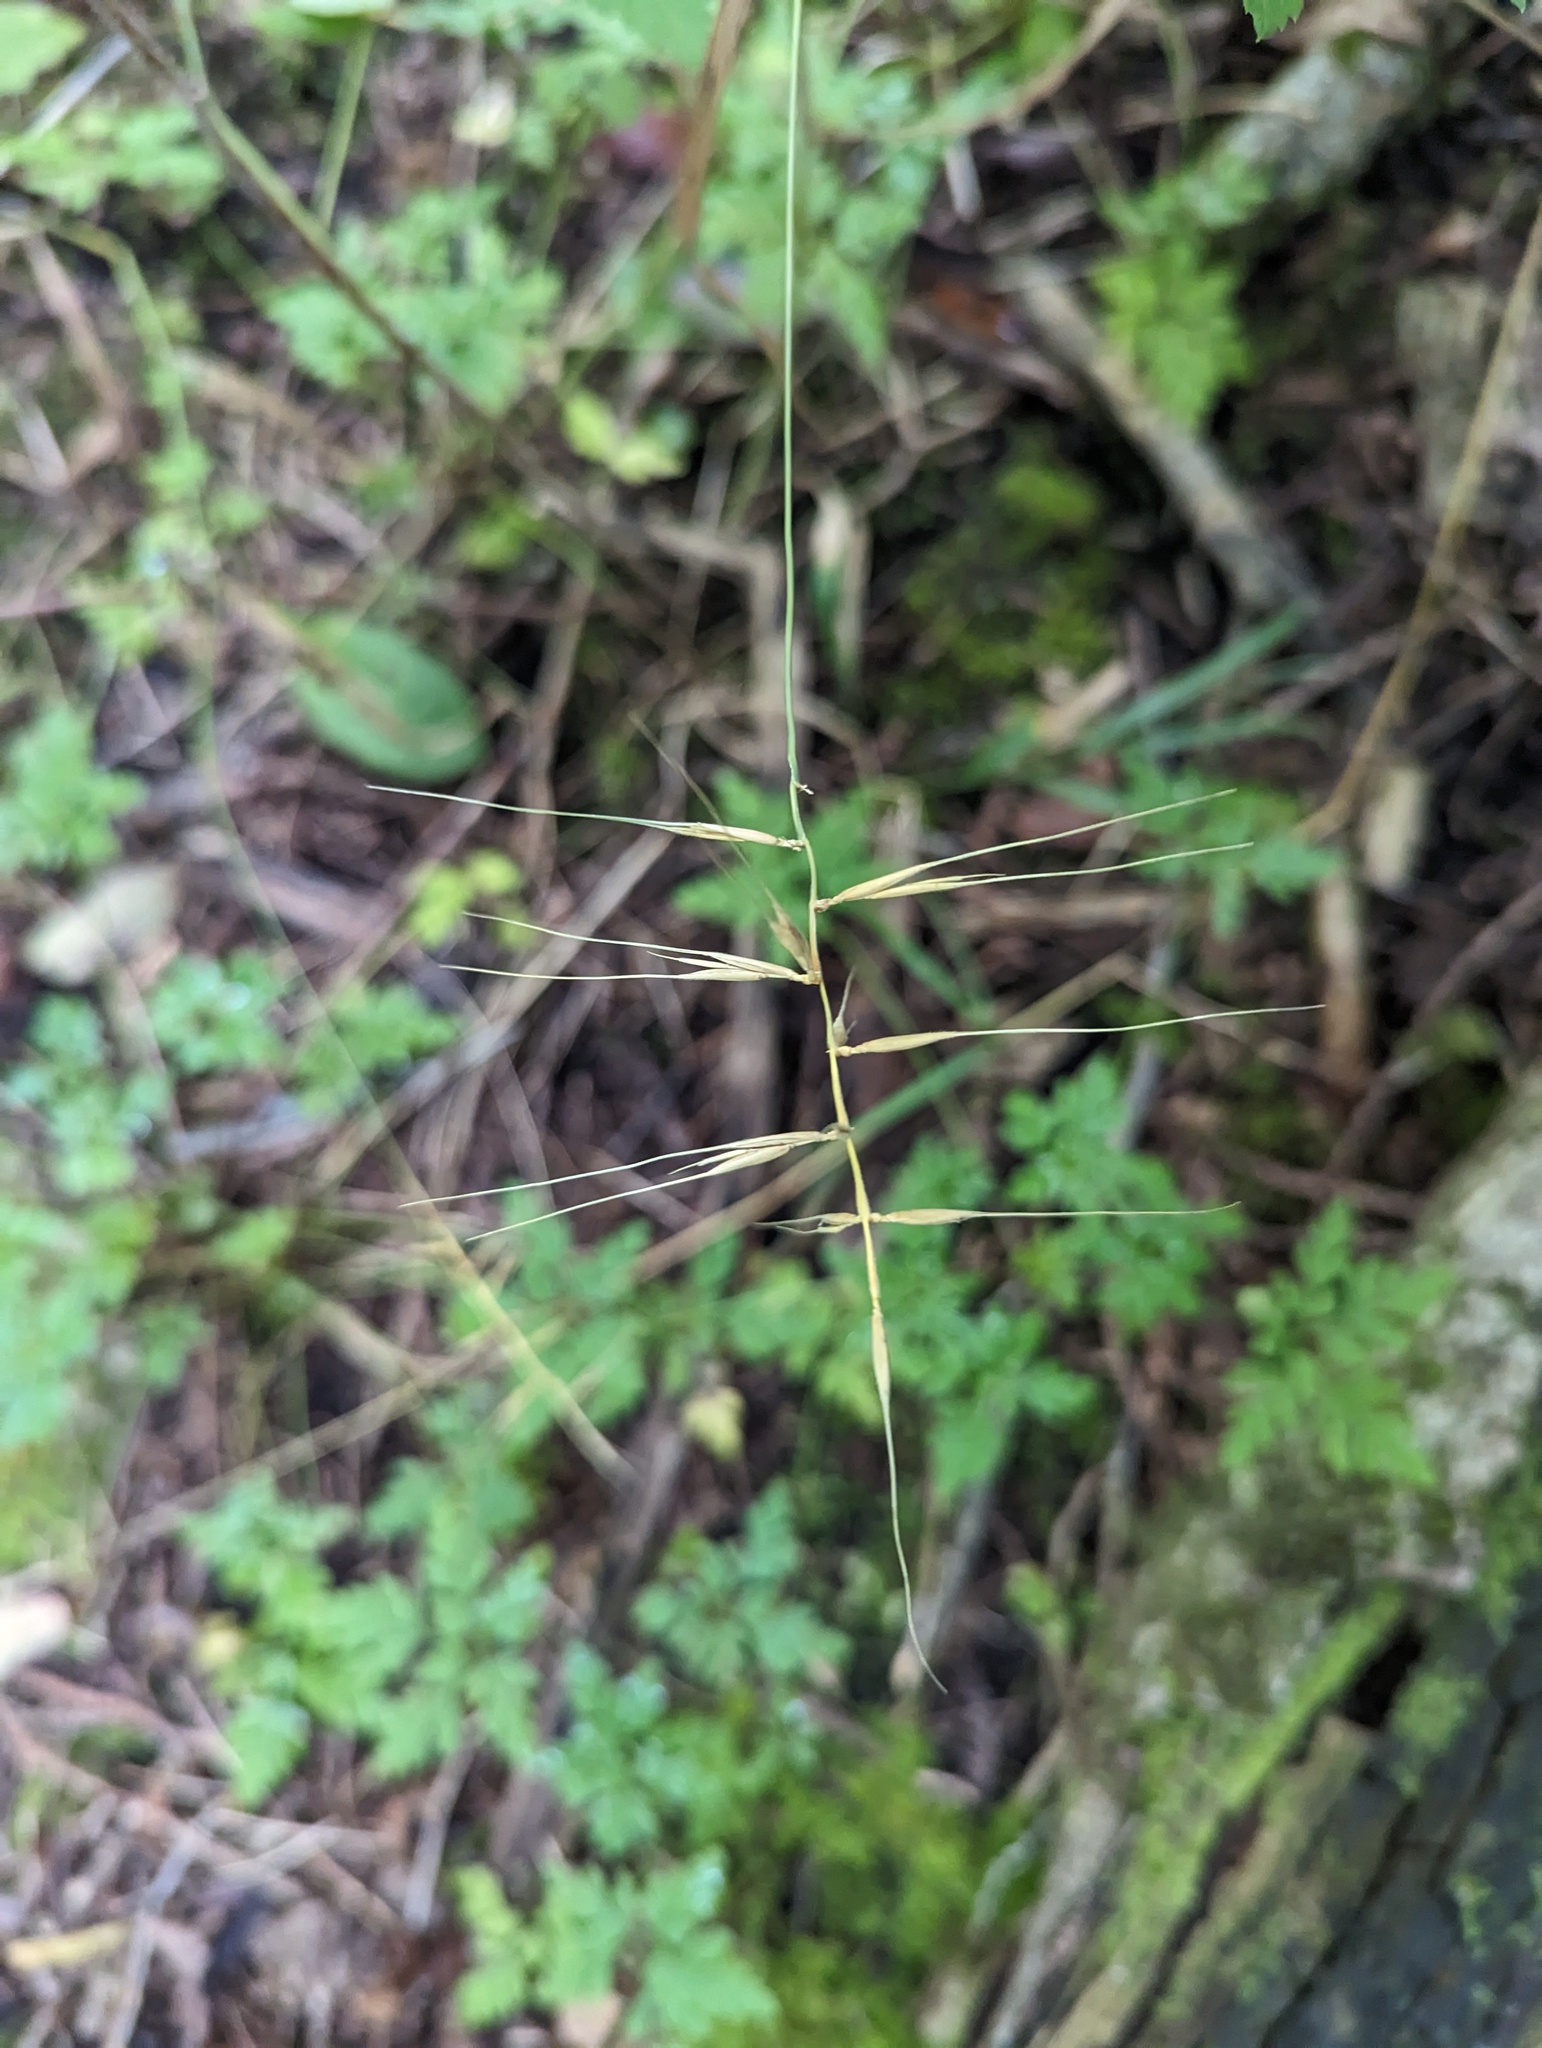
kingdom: Plantae
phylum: Tracheophyta
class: Liliopsida
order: Poales
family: Poaceae
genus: Elymus
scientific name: Elymus hystrix
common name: Bottlebrush grass
